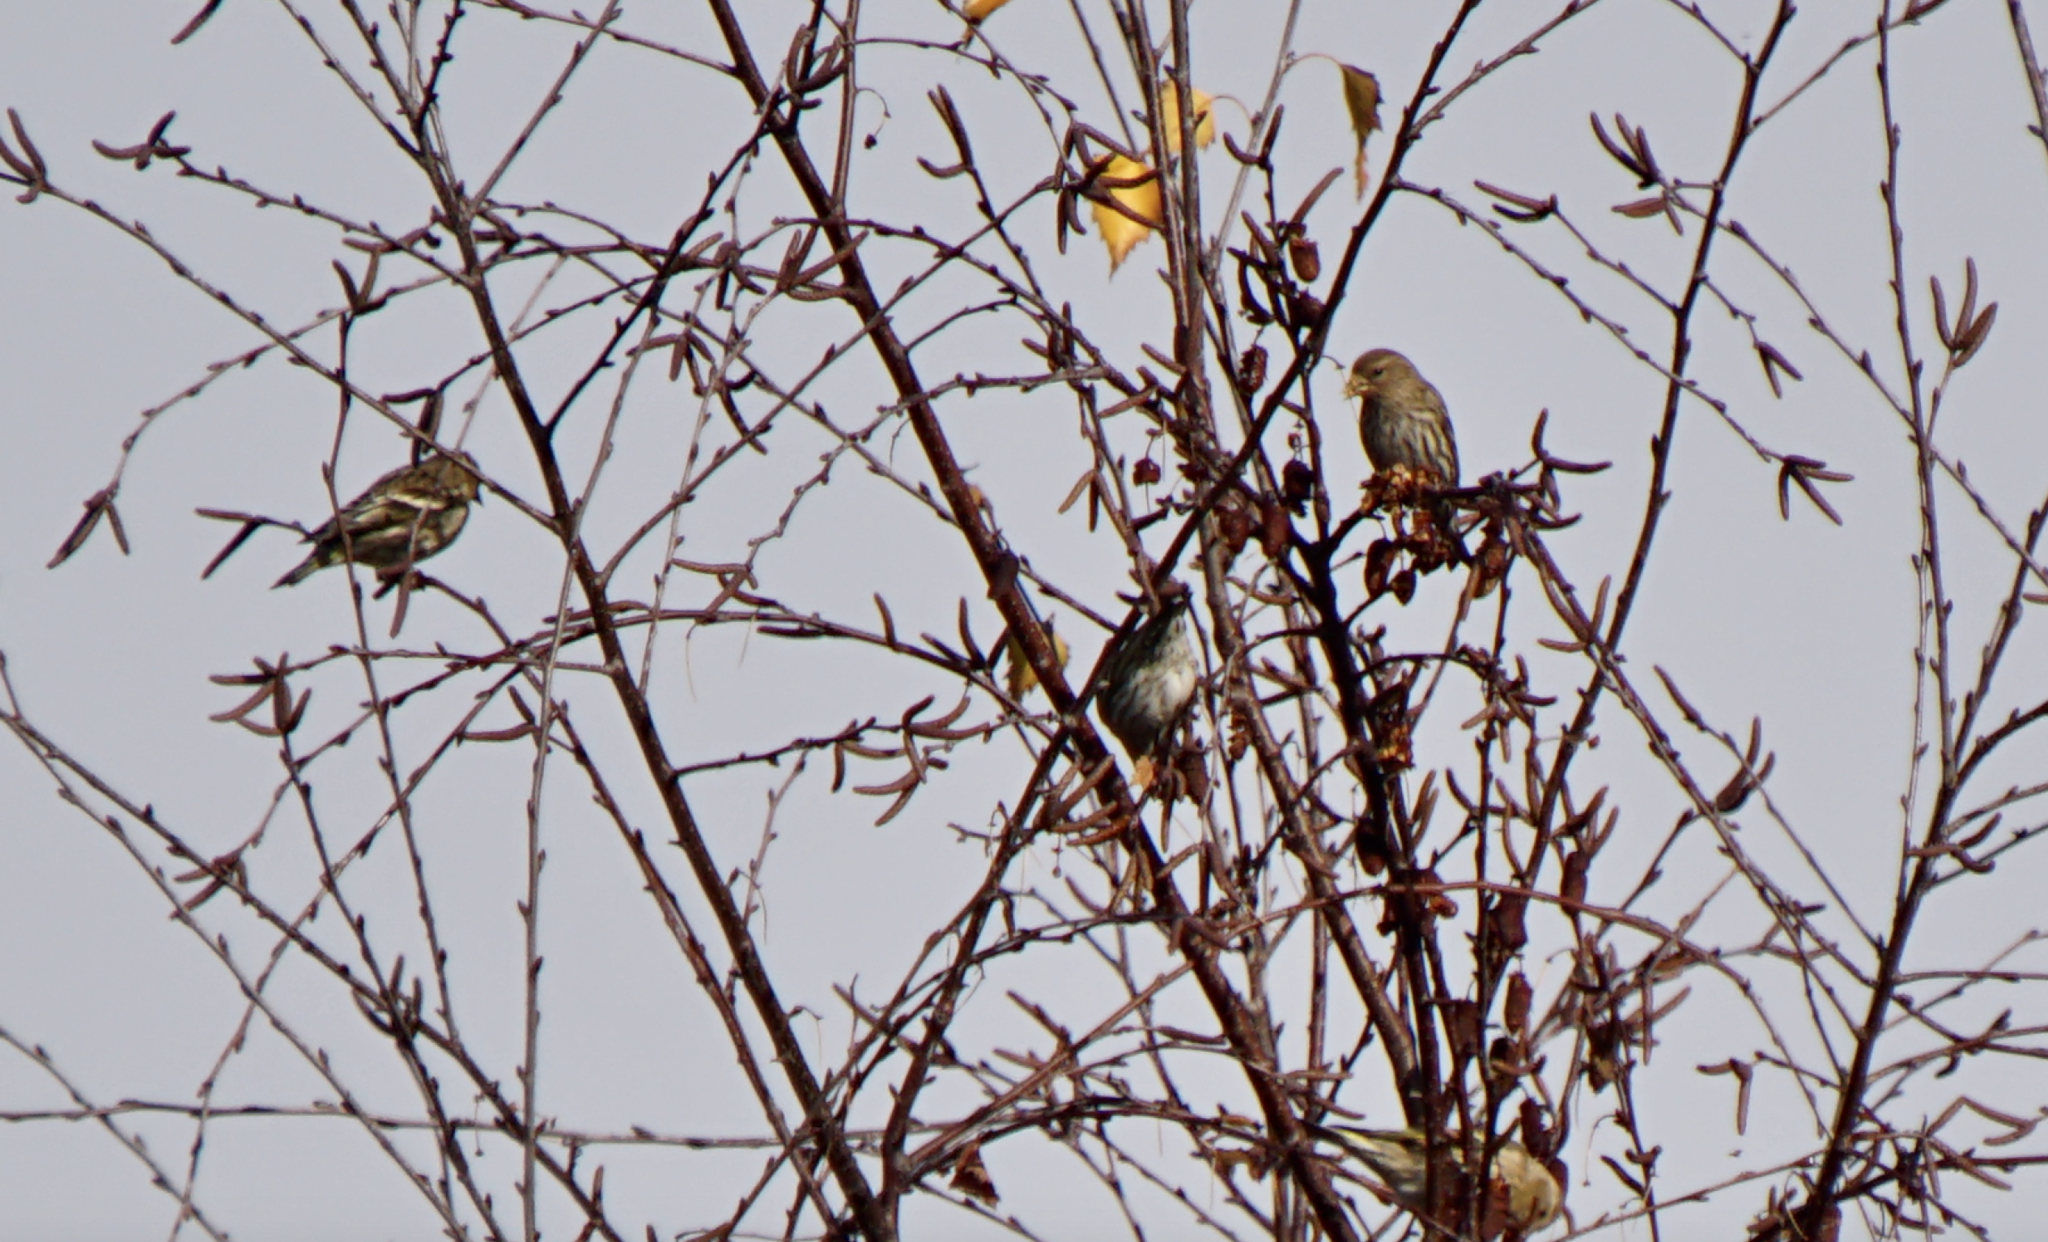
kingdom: Animalia
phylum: Chordata
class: Aves
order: Passeriformes
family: Fringillidae
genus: Spinus
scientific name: Spinus pinus
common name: Pine siskin
